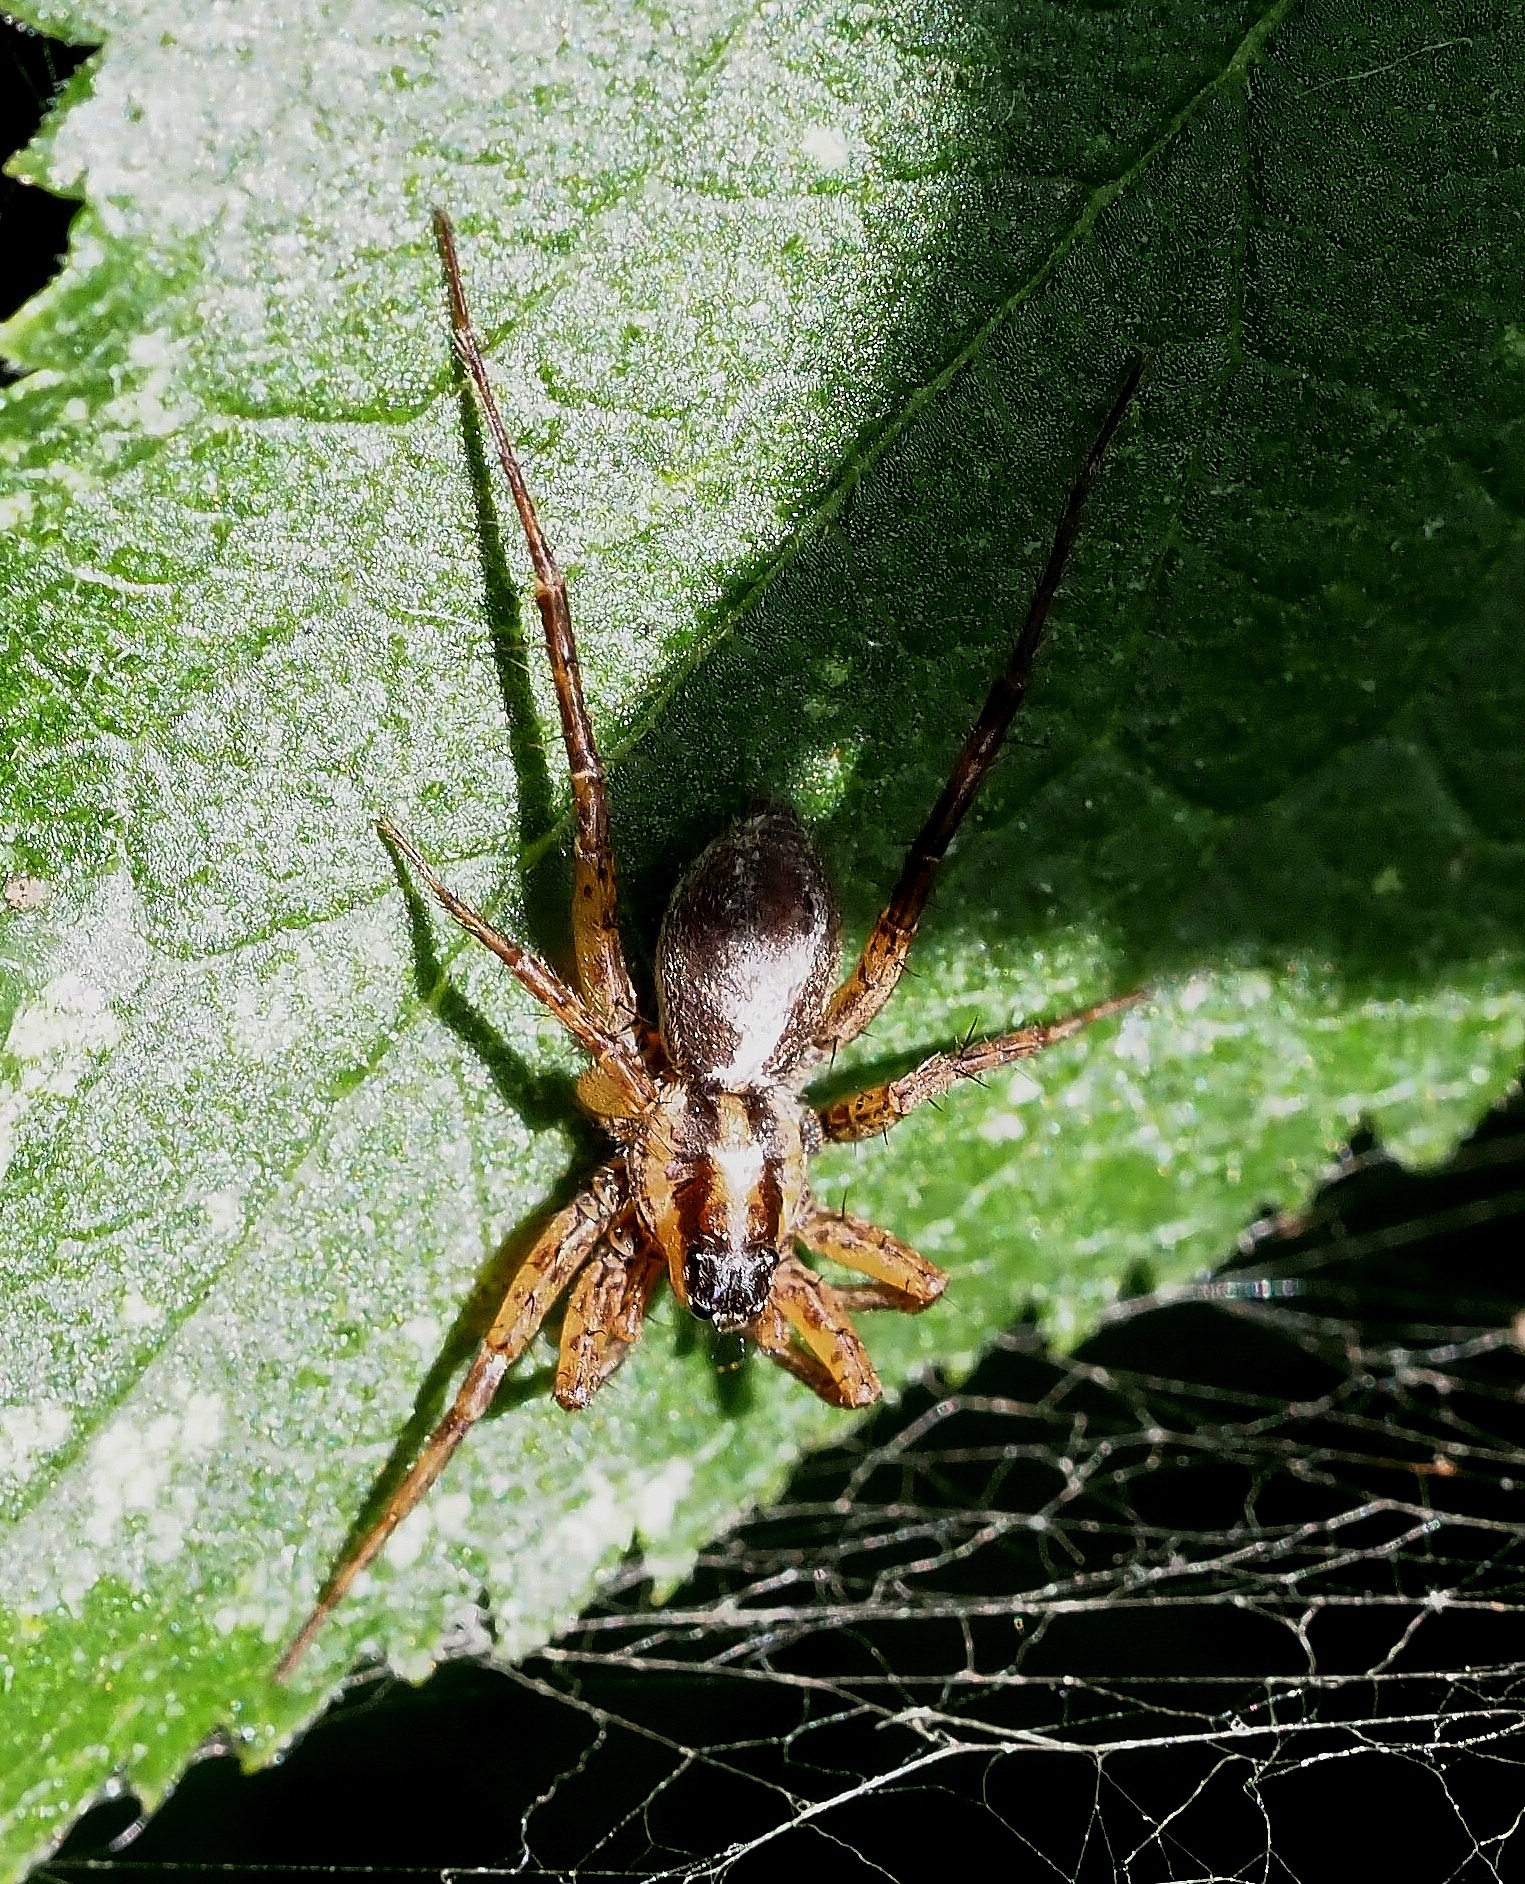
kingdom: Animalia
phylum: Arthropoda
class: Arachnida
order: Araneae
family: Lycosidae
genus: Pardosa
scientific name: Pardosa nigriceps
